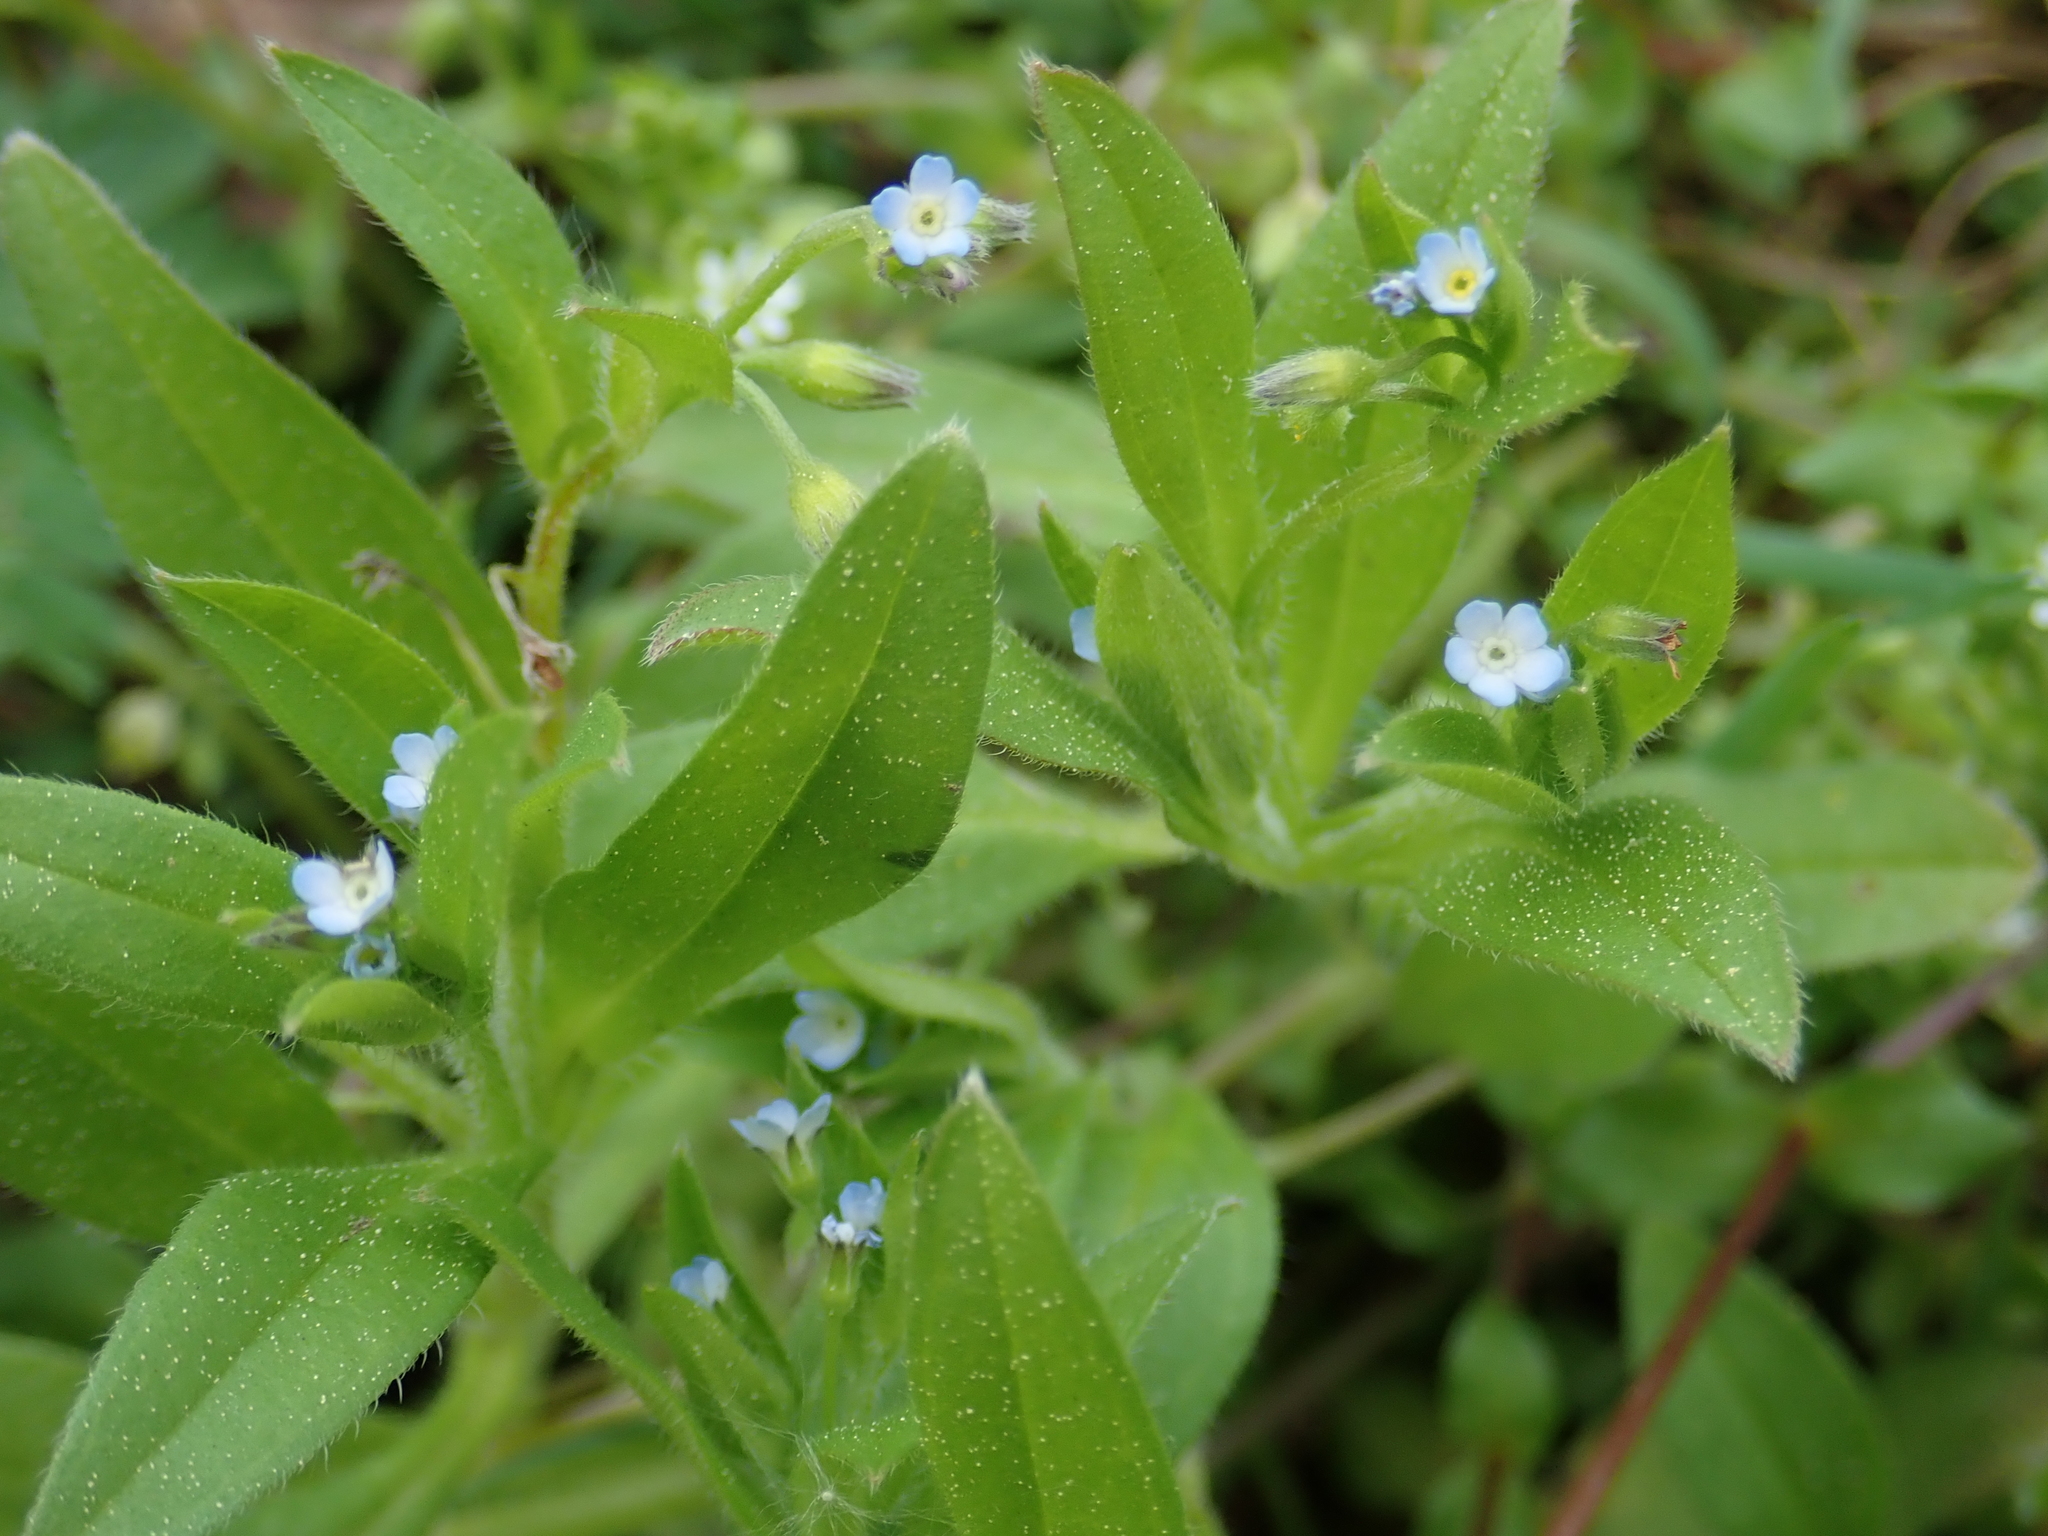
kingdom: Plantae
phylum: Tracheophyta
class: Magnoliopsida
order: Boraginales
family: Boraginaceae
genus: Myosotis
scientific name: Myosotis sparsiflora
